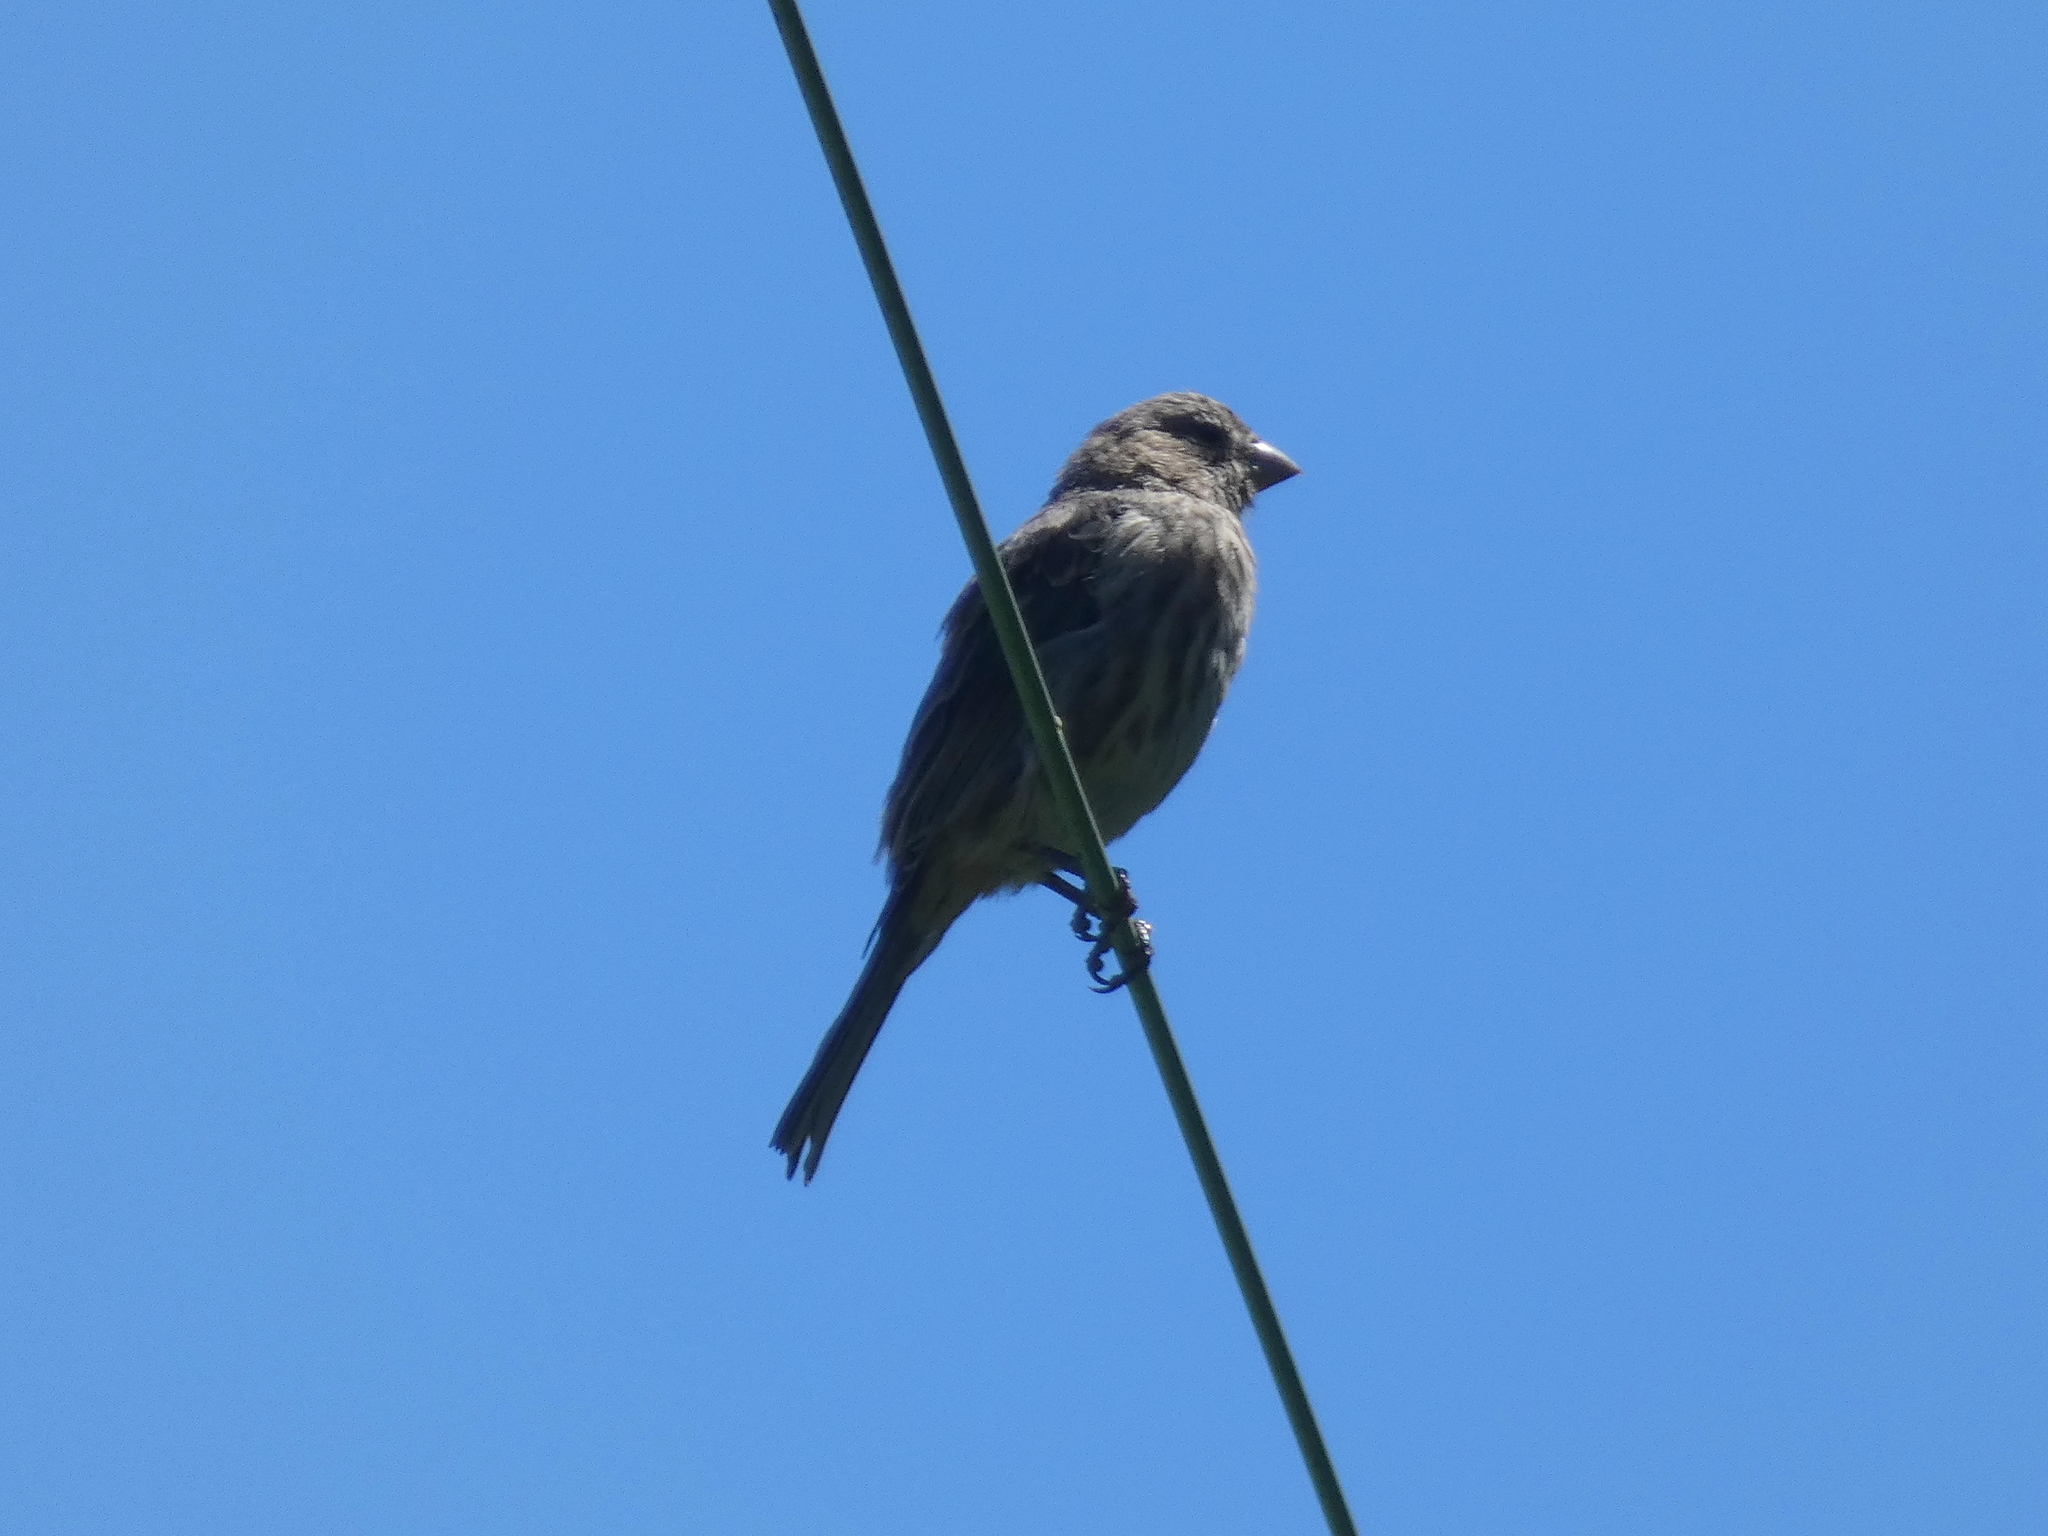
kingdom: Animalia
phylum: Chordata
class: Aves
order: Passeriformes
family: Fringillidae
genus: Haemorhous
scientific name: Haemorhous mexicanus
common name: House finch
